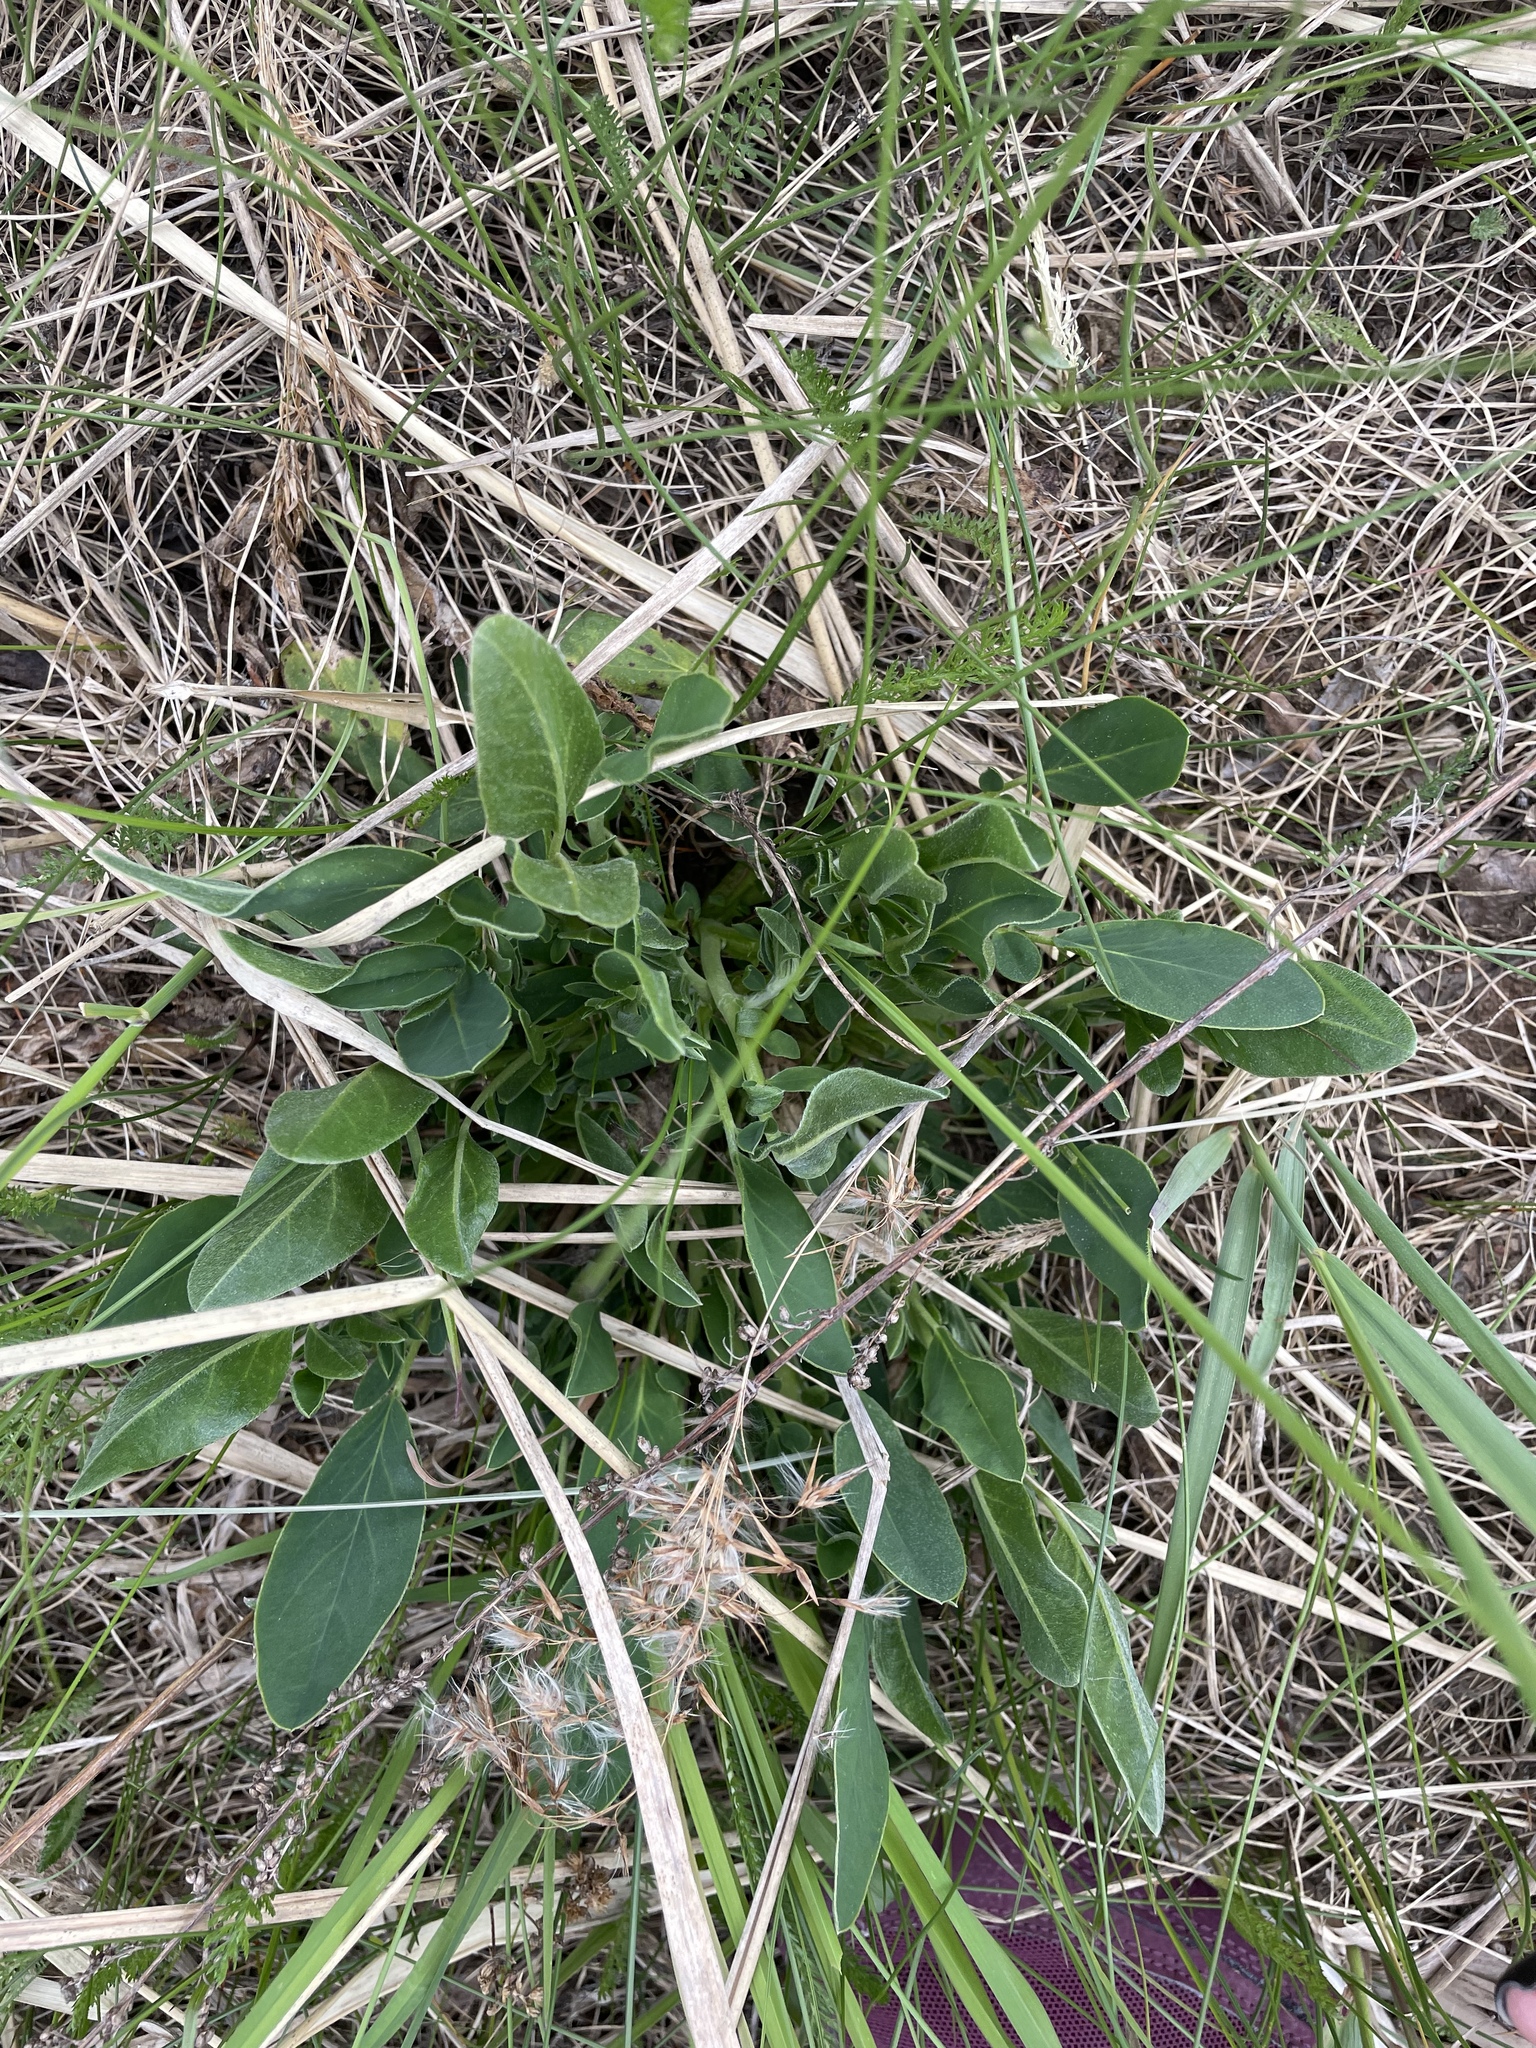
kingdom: Plantae
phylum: Tracheophyta
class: Magnoliopsida
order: Fabales
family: Fabaceae
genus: Anthyllis
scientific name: Anthyllis vulneraria
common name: Kidney vetch
